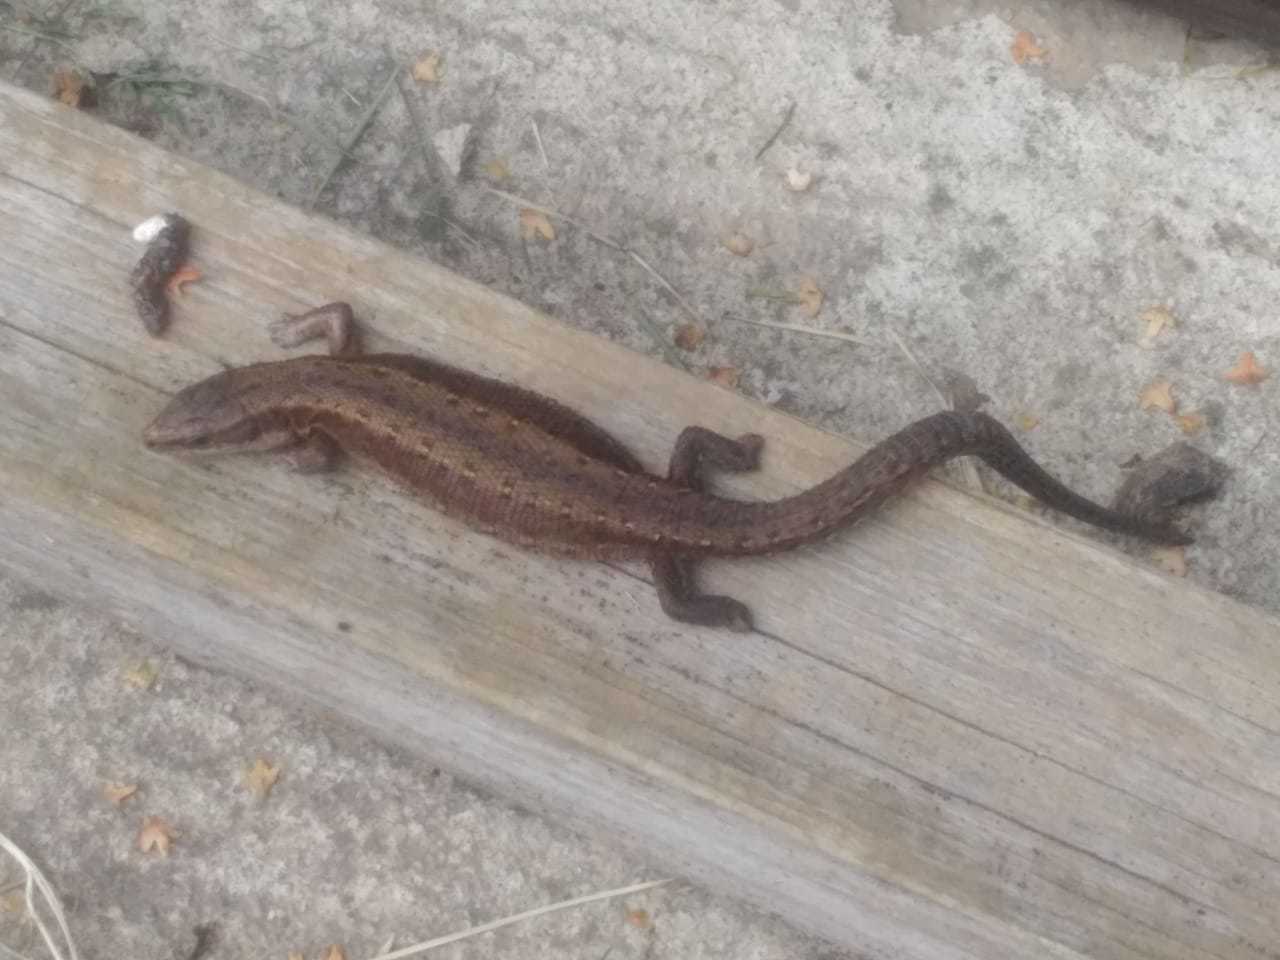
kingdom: Animalia
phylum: Chordata
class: Squamata
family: Lacertidae
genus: Zootoca
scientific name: Zootoca vivipara
